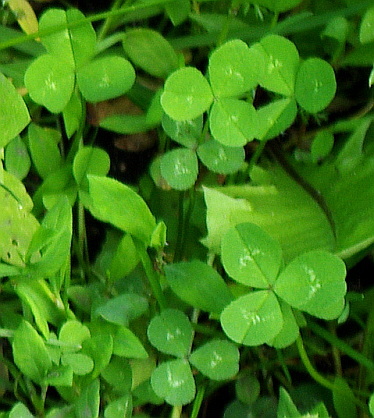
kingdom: Plantae
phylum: Tracheophyta
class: Magnoliopsida
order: Fabales
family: Fabaceae
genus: Trifolium
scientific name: Trifolium repens
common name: White clover
